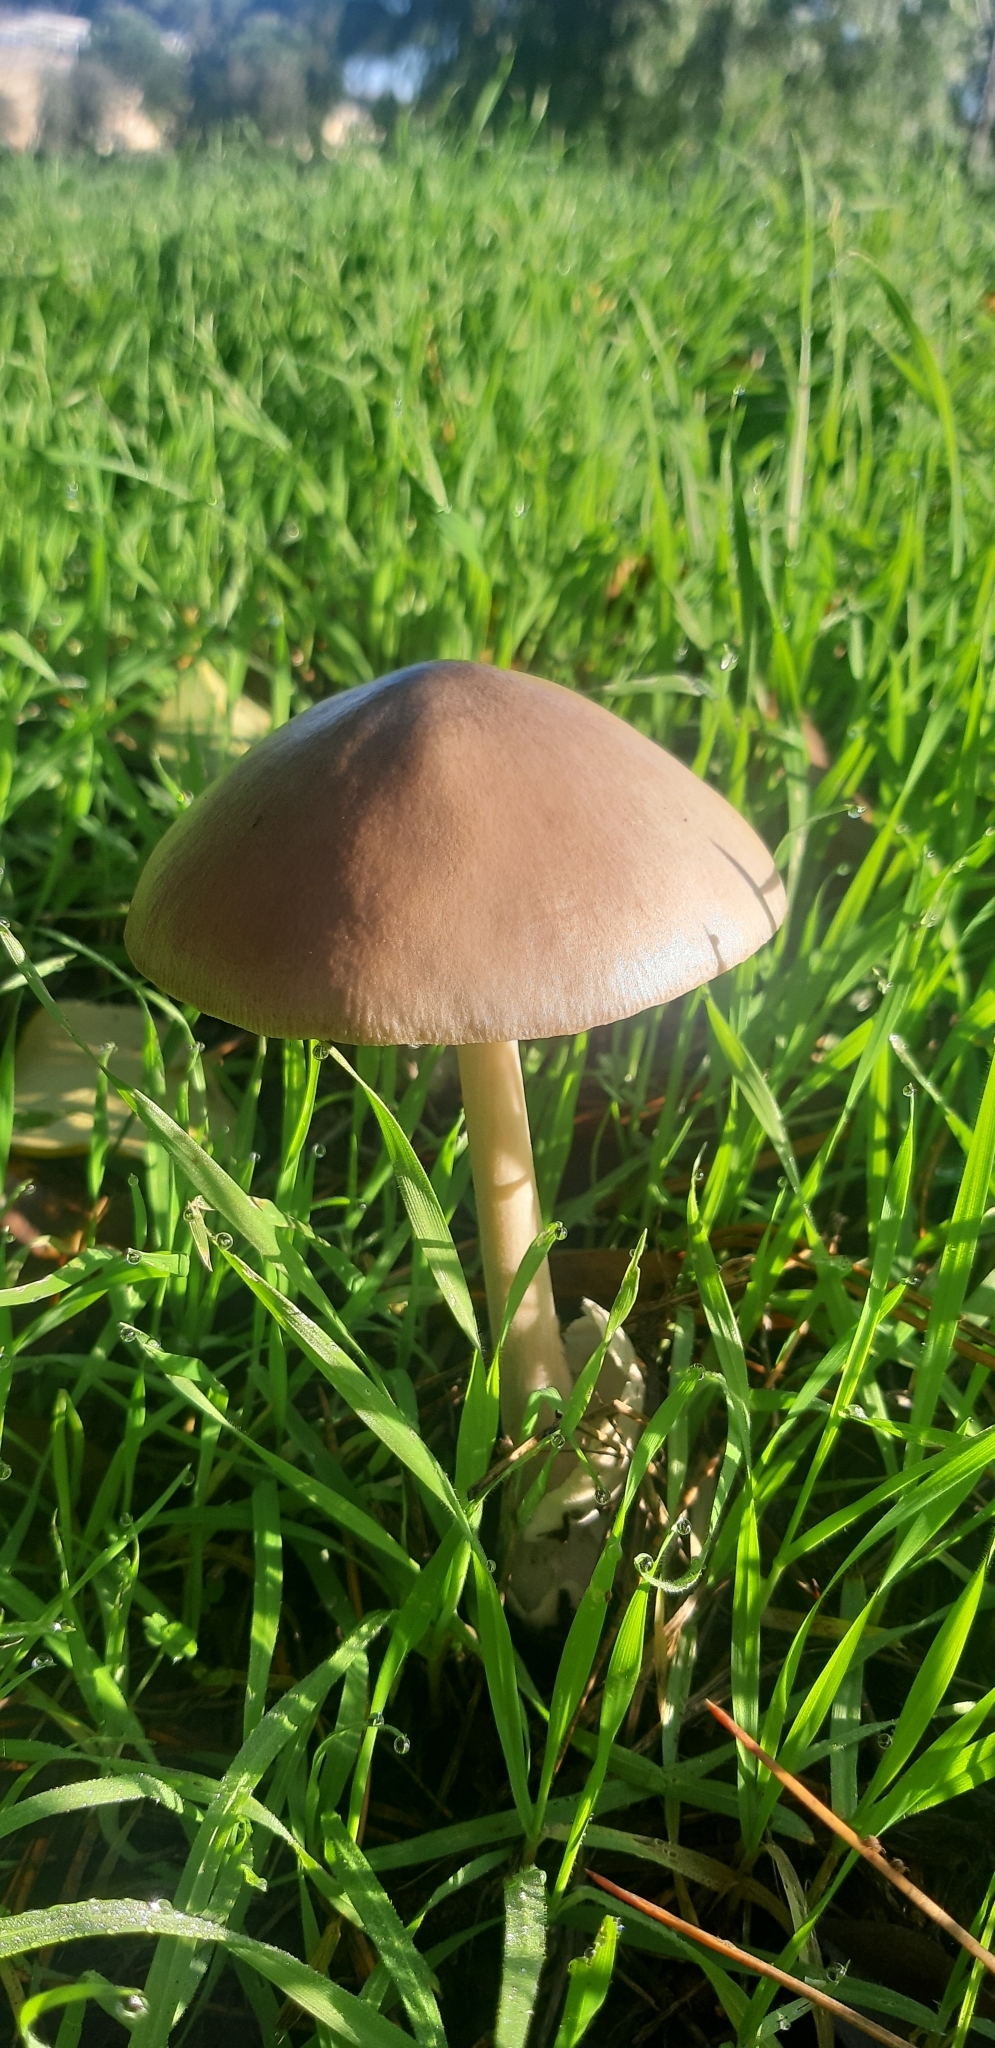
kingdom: Fungi
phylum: Basidiomycota
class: Agaricomycetes
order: Agaricales
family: Pluteaceae
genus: Volvopluteus
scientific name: Volvopluteus gloiocephalus
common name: Stubble rosegill
